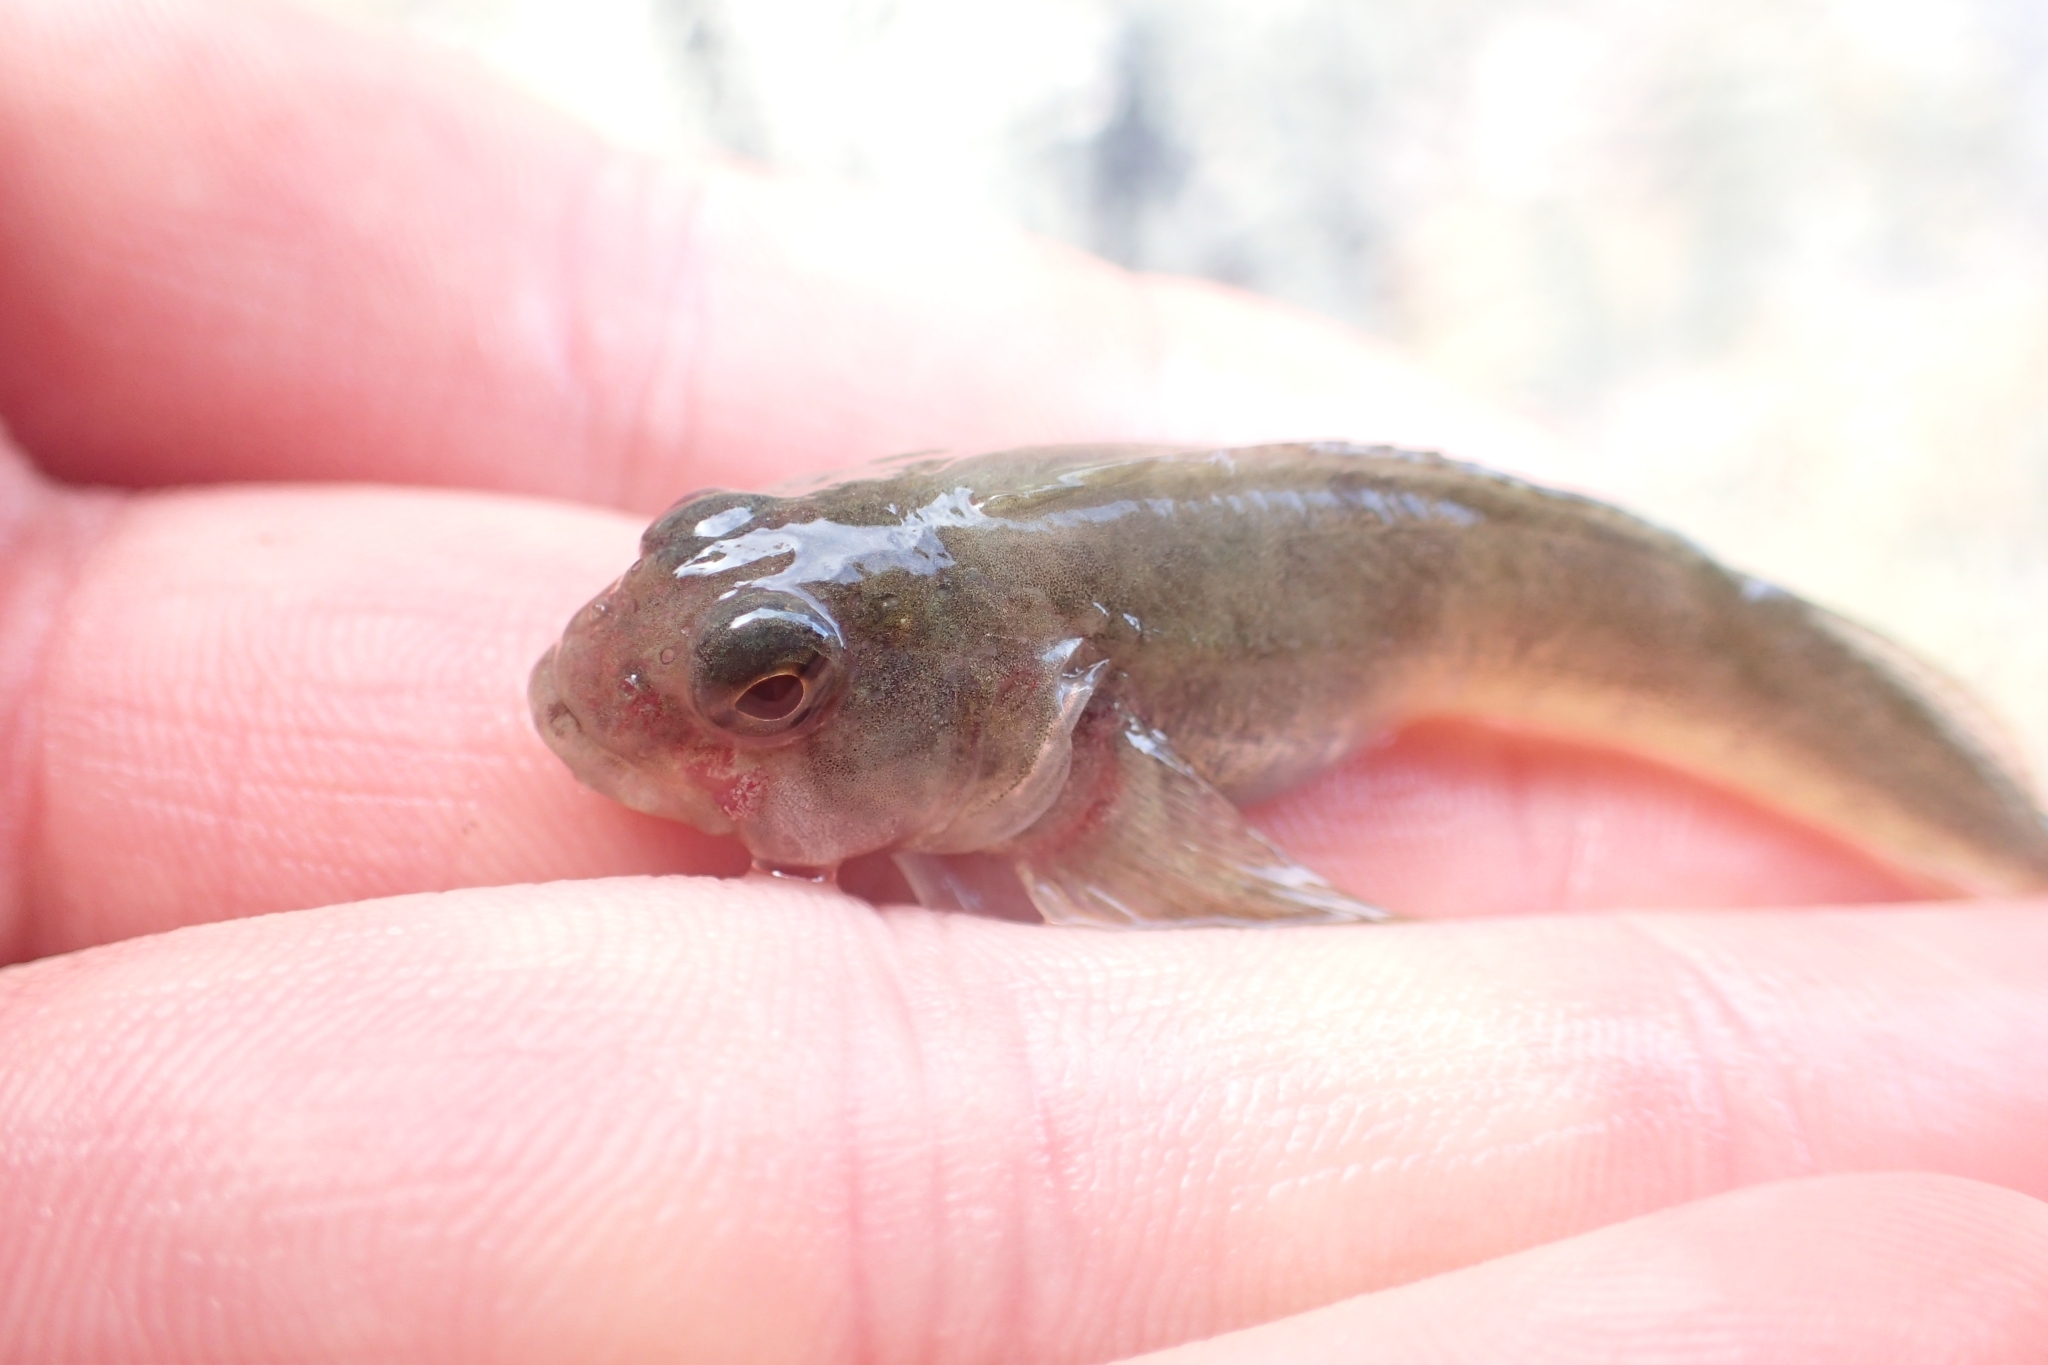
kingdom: Animalia
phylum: Chordata
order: Perciformes
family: Tripterygiidae
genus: Bellapiscis
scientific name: Bellapiscis medius
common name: Twister
